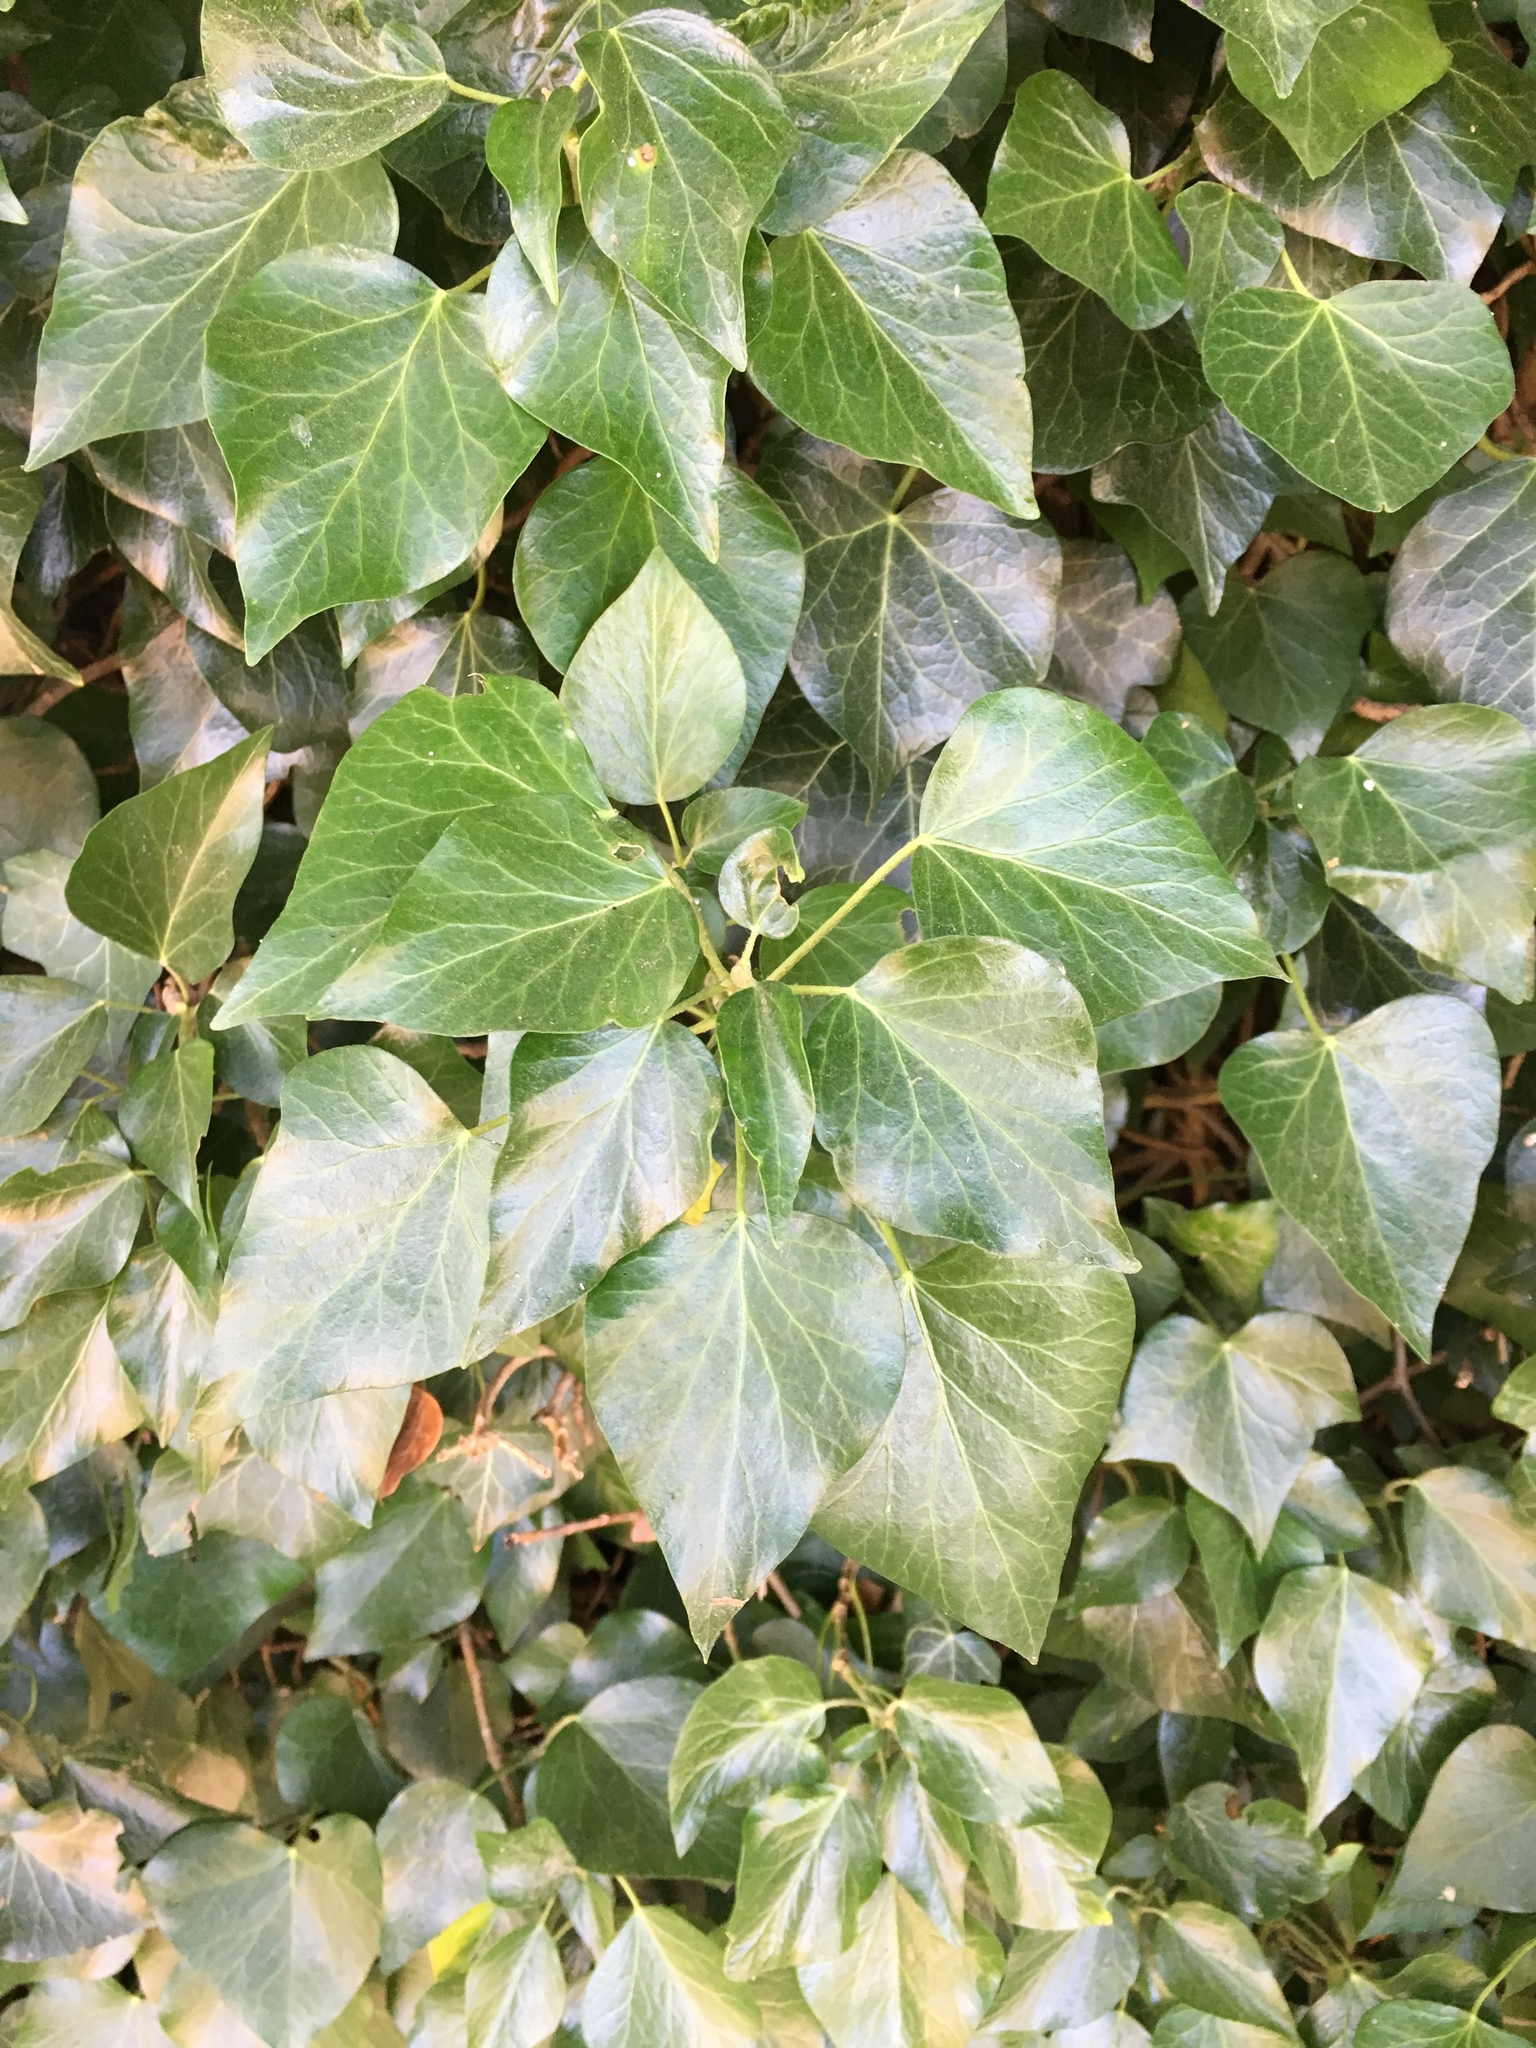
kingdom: Plantae
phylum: Tracheophyta
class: Magnoliopsida
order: Apiales
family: Araliaceae
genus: Hedera
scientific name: Hedera helix
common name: Ivy
